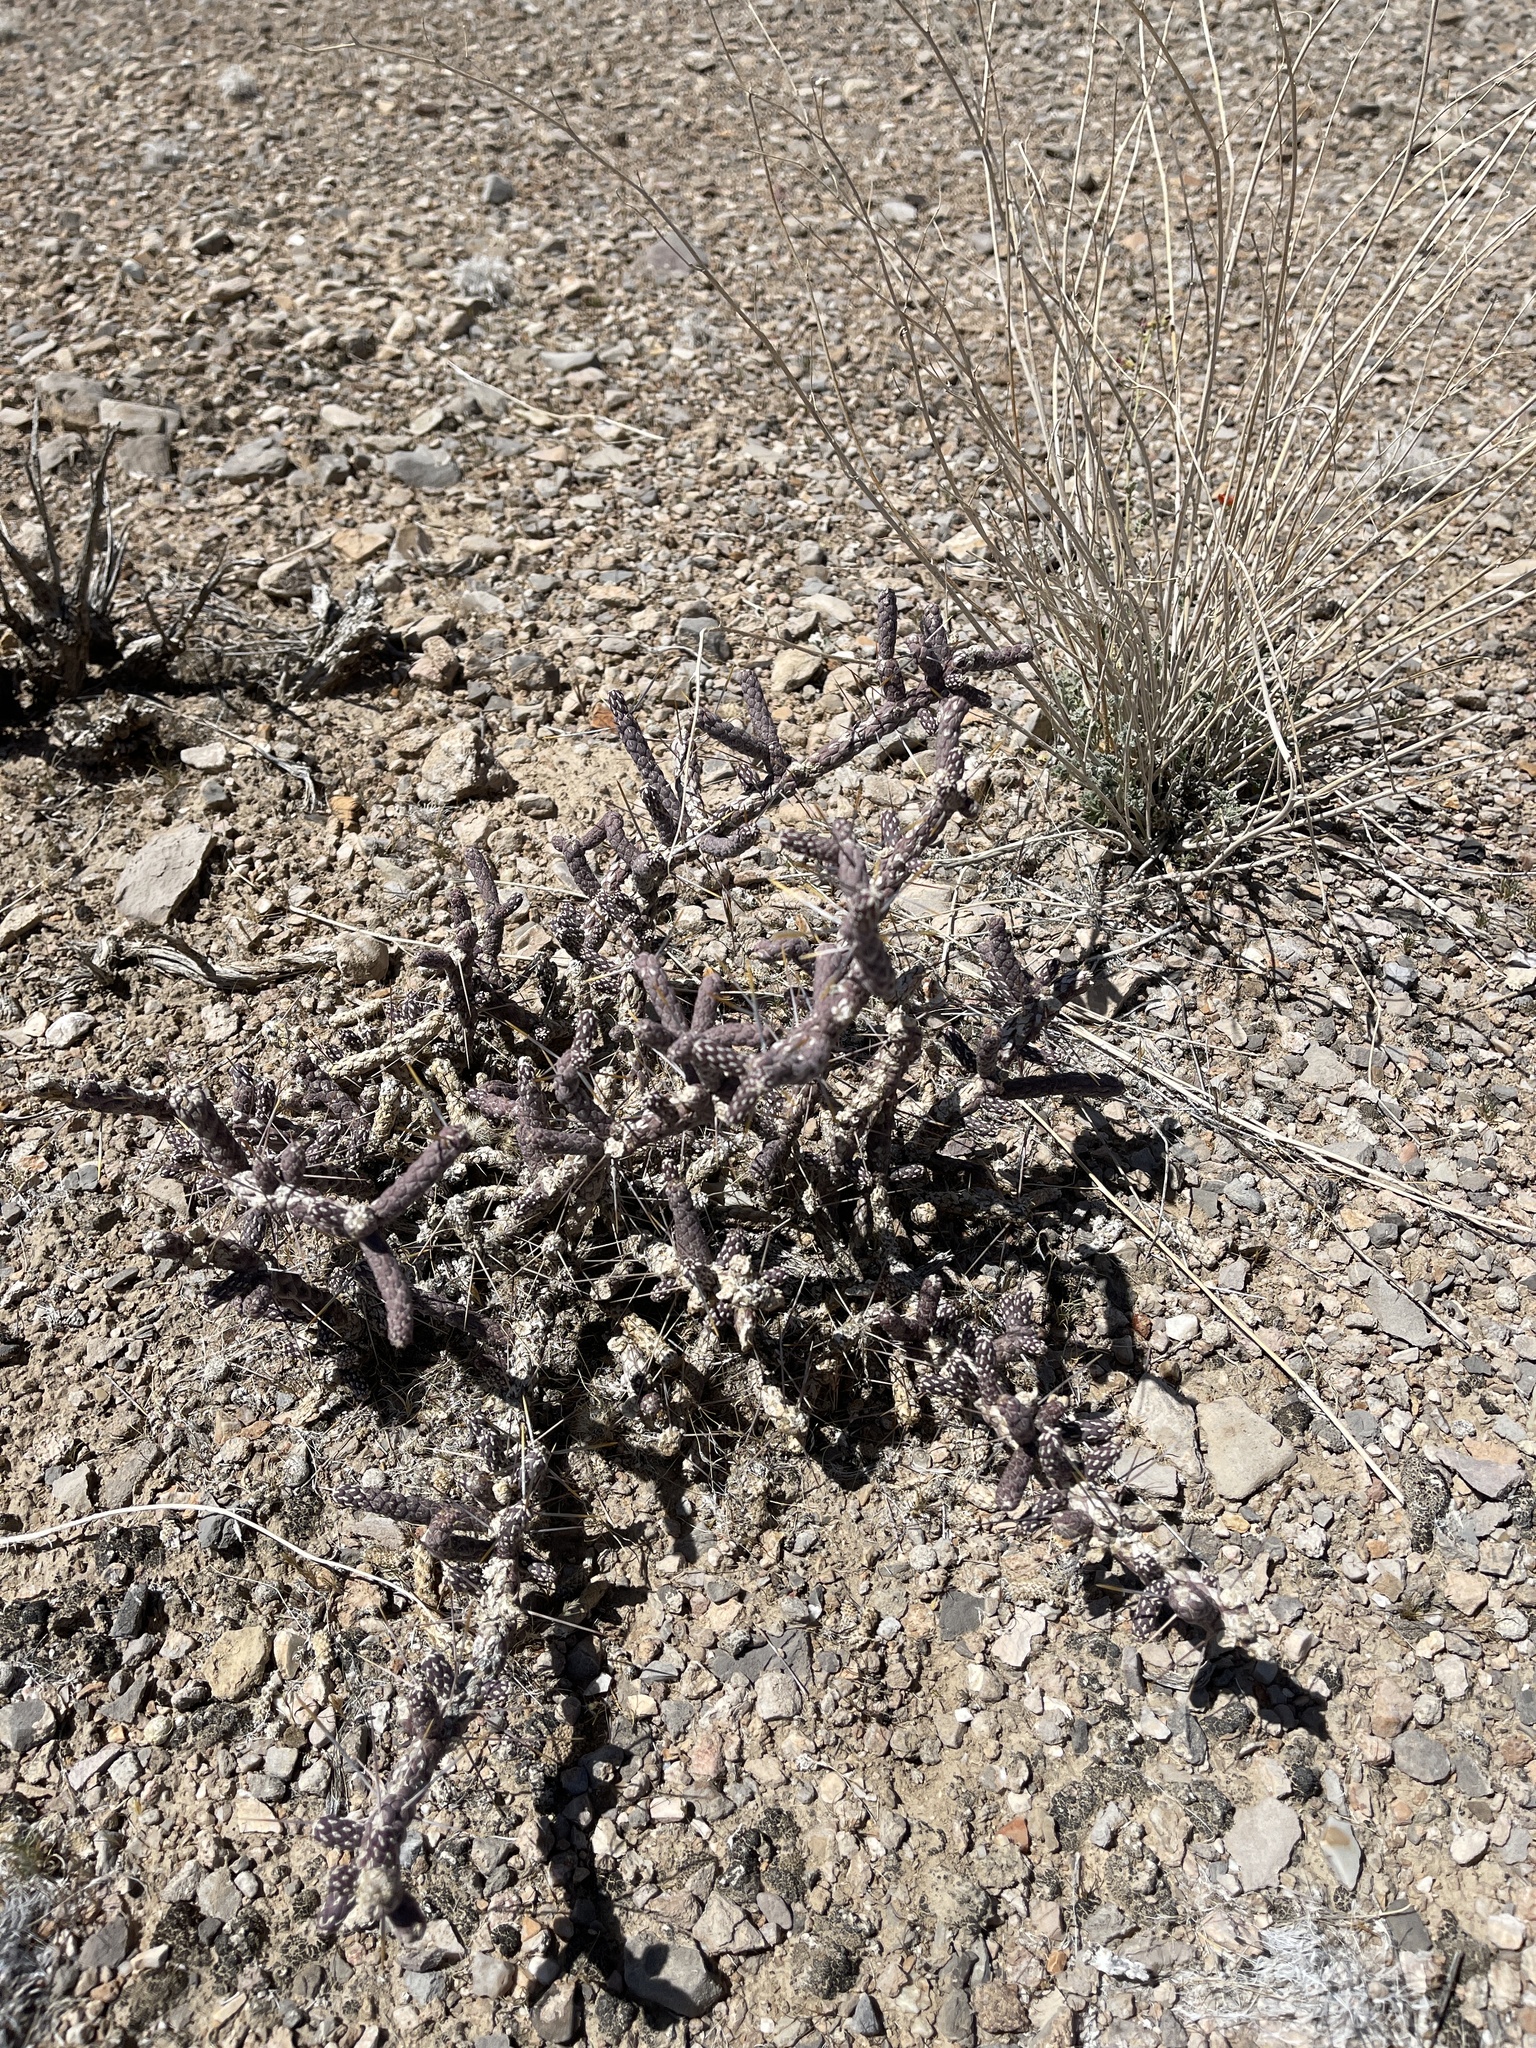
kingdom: Plantae
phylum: Tracheophyta
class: Magnoliopsida
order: Caryophyllales
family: Cactaceae
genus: Cylindropuntia
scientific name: Cylindropuntia ramosissima
